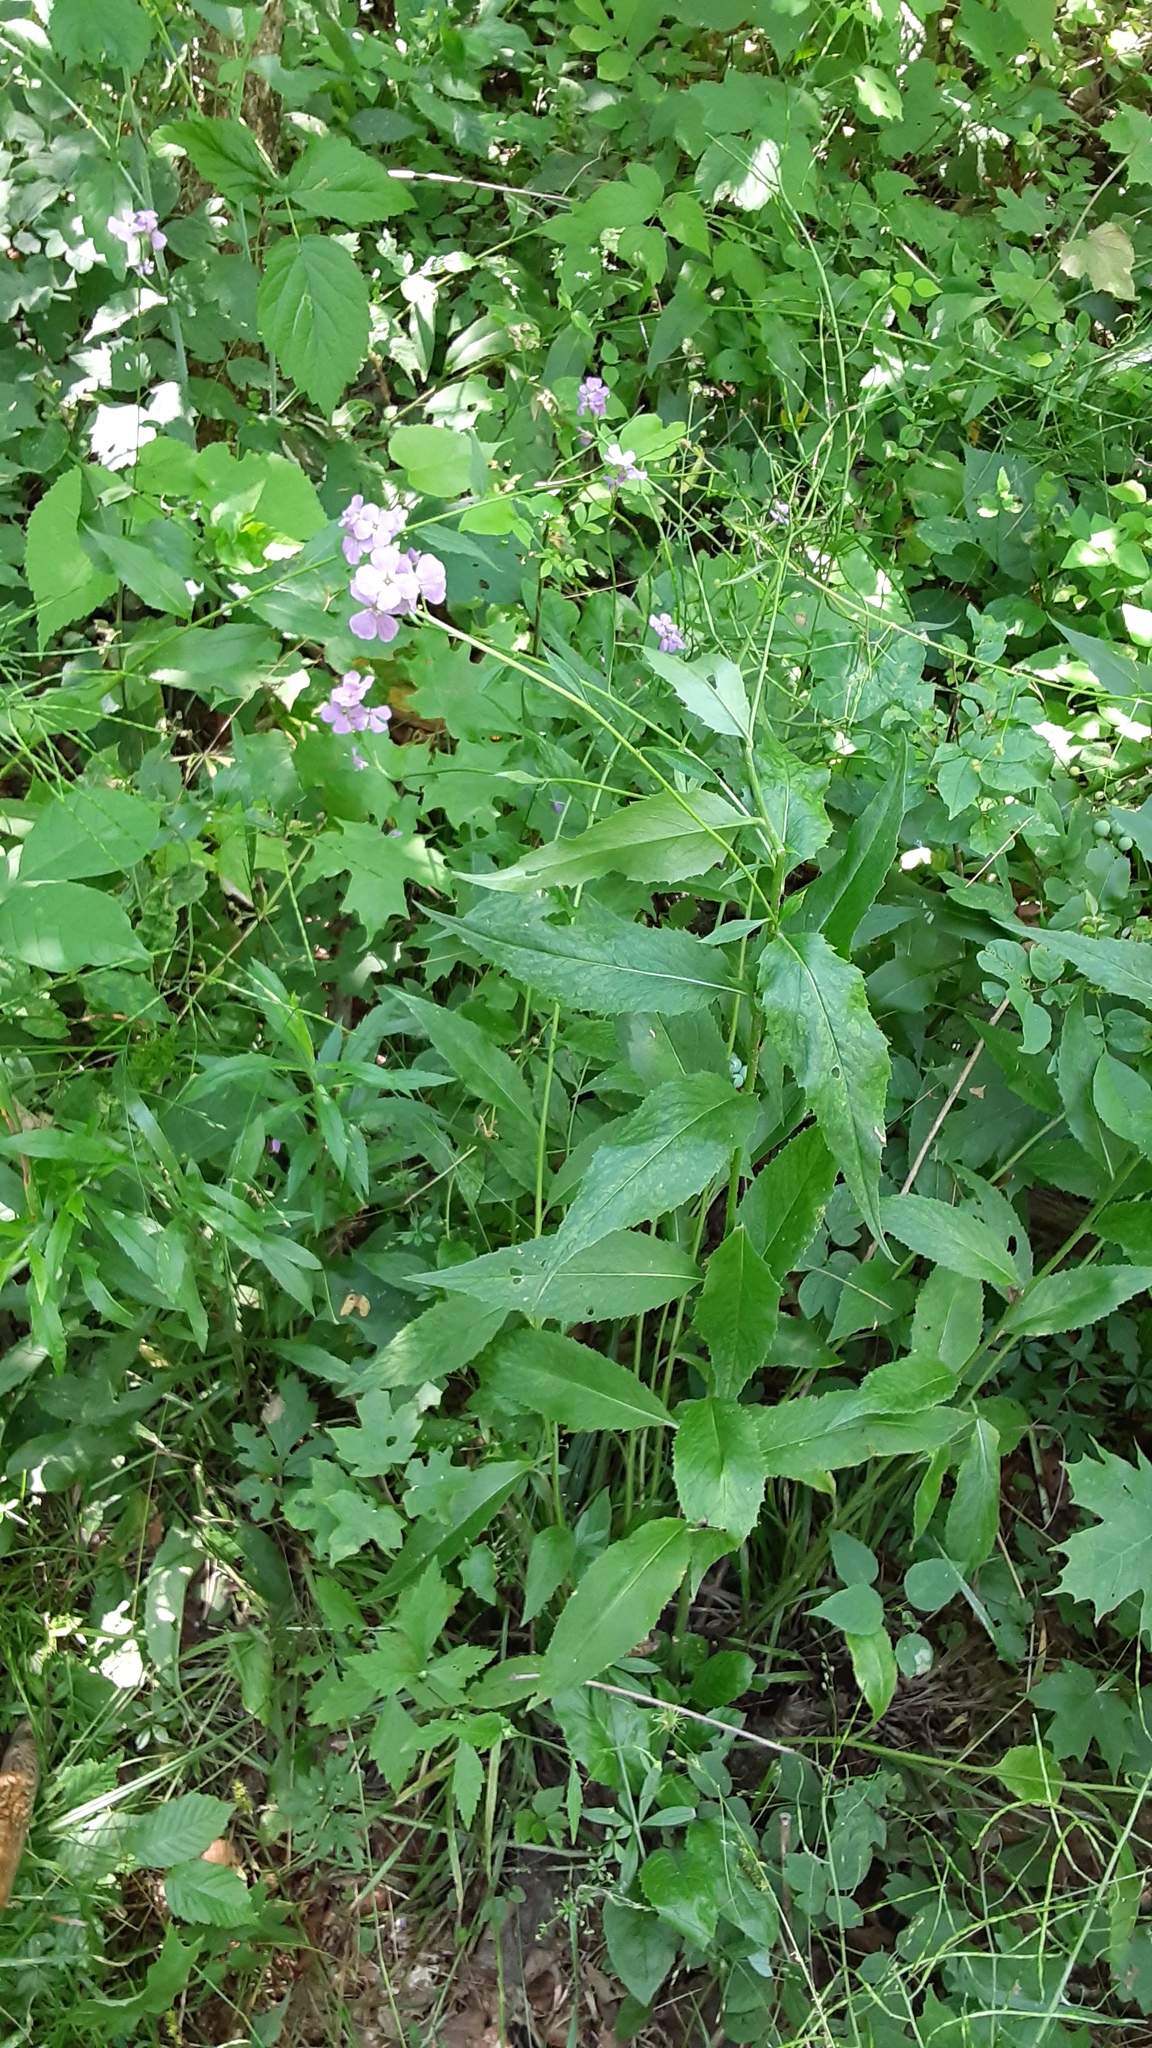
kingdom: Plantae
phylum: Tracheophyta
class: Magnoliopsida
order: Brassicales
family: Brassicaceae
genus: Hesperis
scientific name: Hesperis matronalis
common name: Dame's-violet
